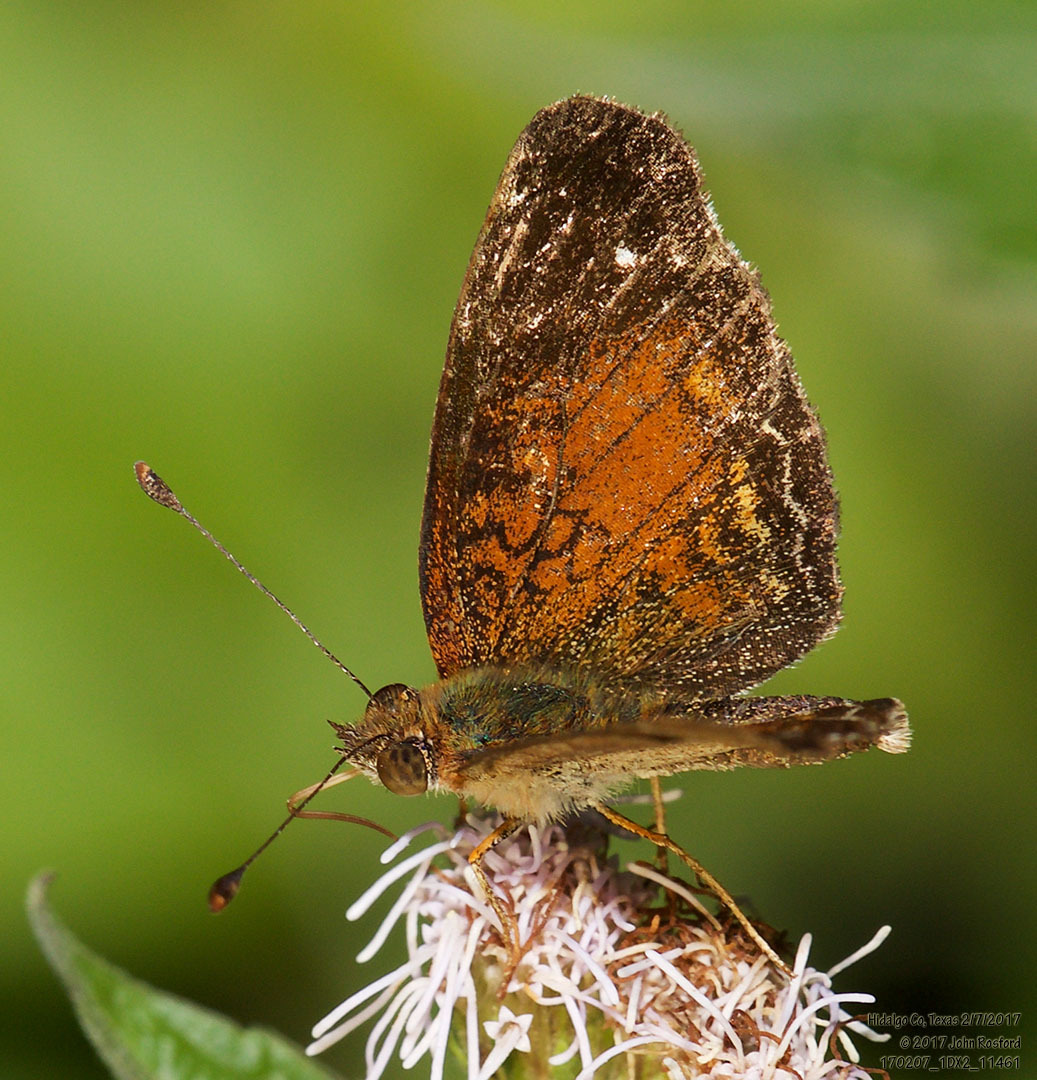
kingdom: Animalia
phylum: Arthropoda
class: Insecta
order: Lepidoptera
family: Nymphalidae
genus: Anthanassa
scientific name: Anthanassa argentea
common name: Chestnut crescent
